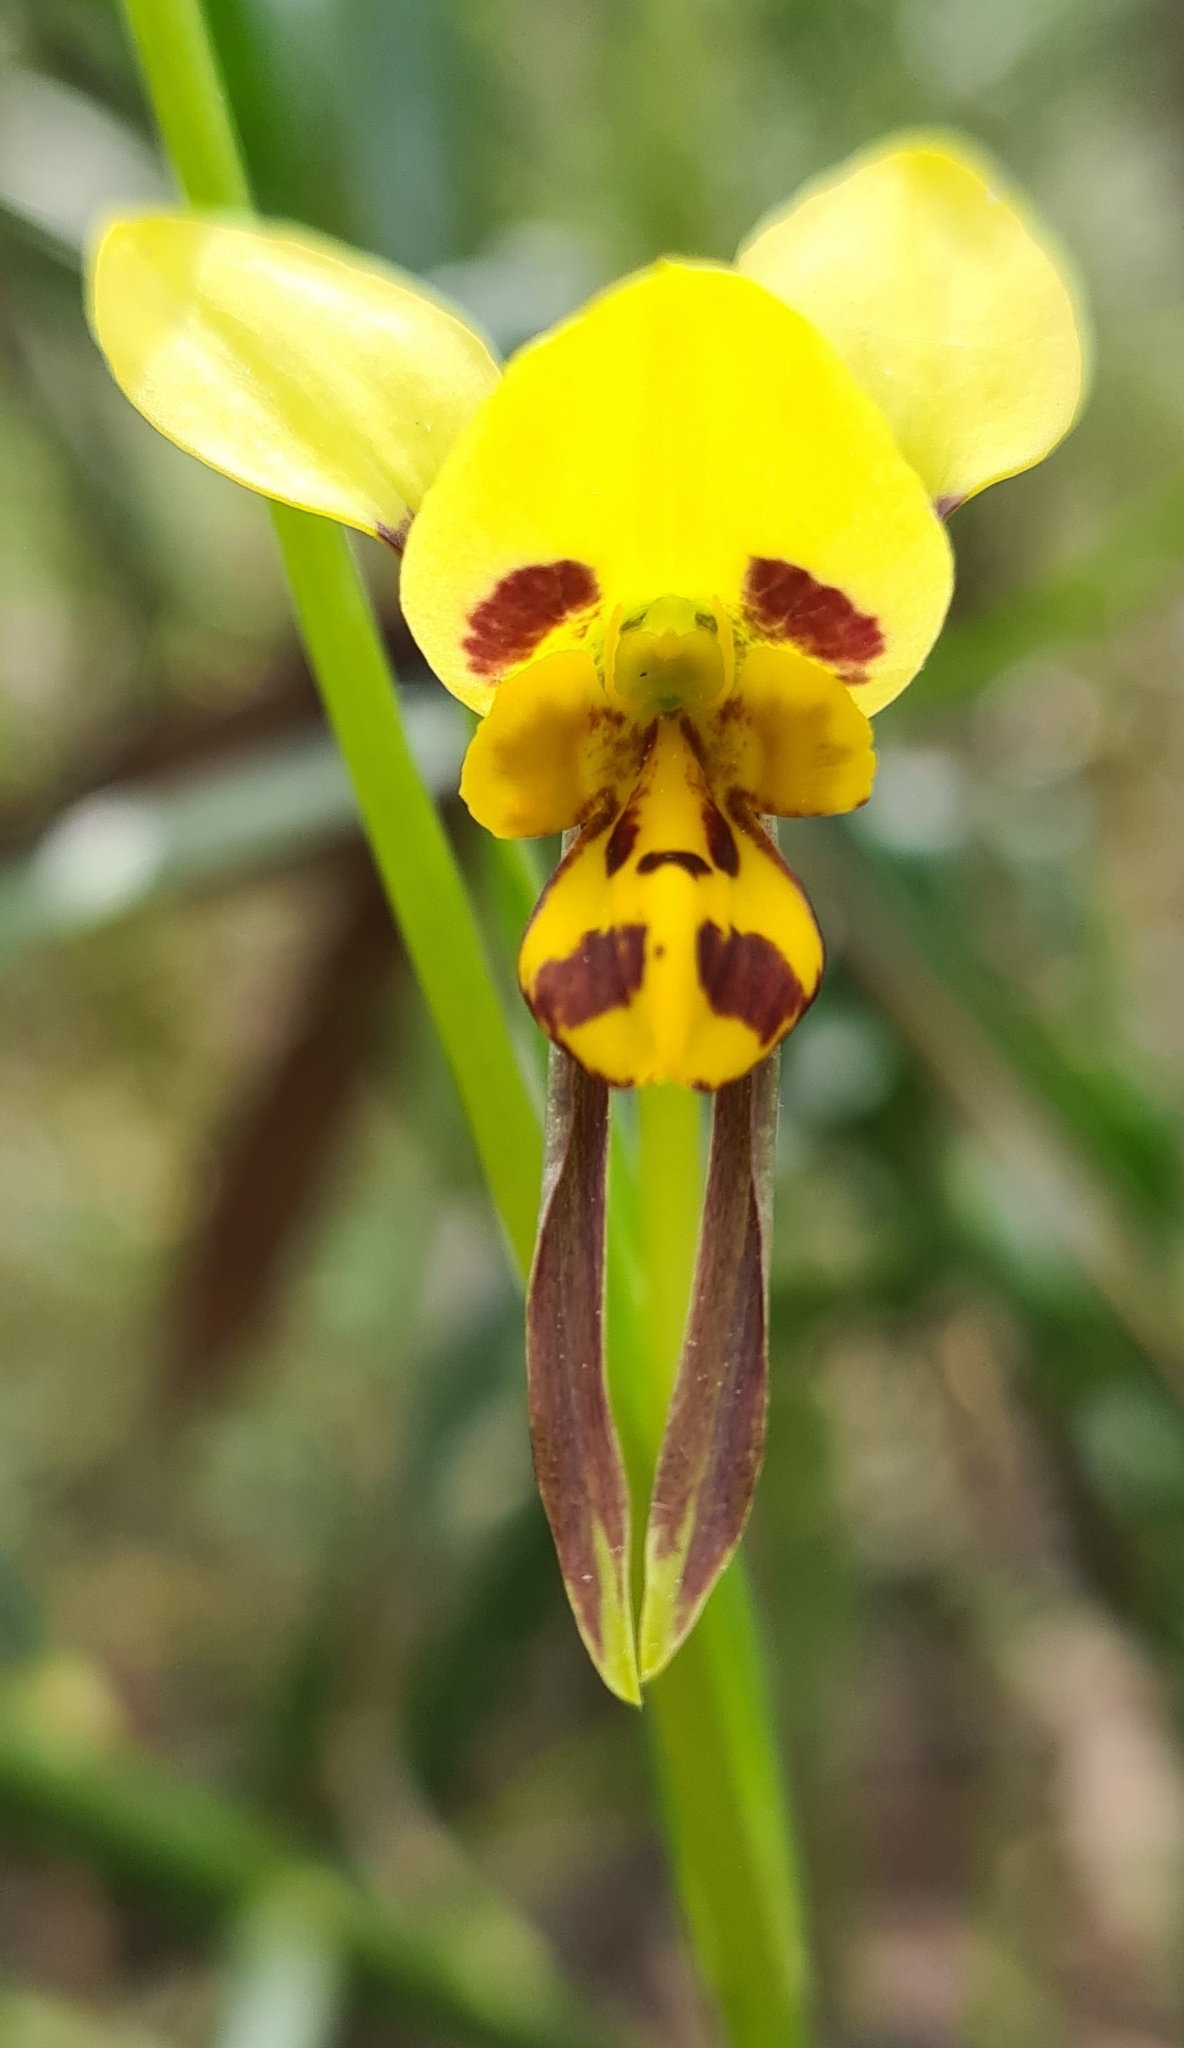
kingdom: Plantae
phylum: Tracheophyta
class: Liliopsida
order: Asparagales
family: Orchidaceae
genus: Diuris
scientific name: Diuris sulphurea
